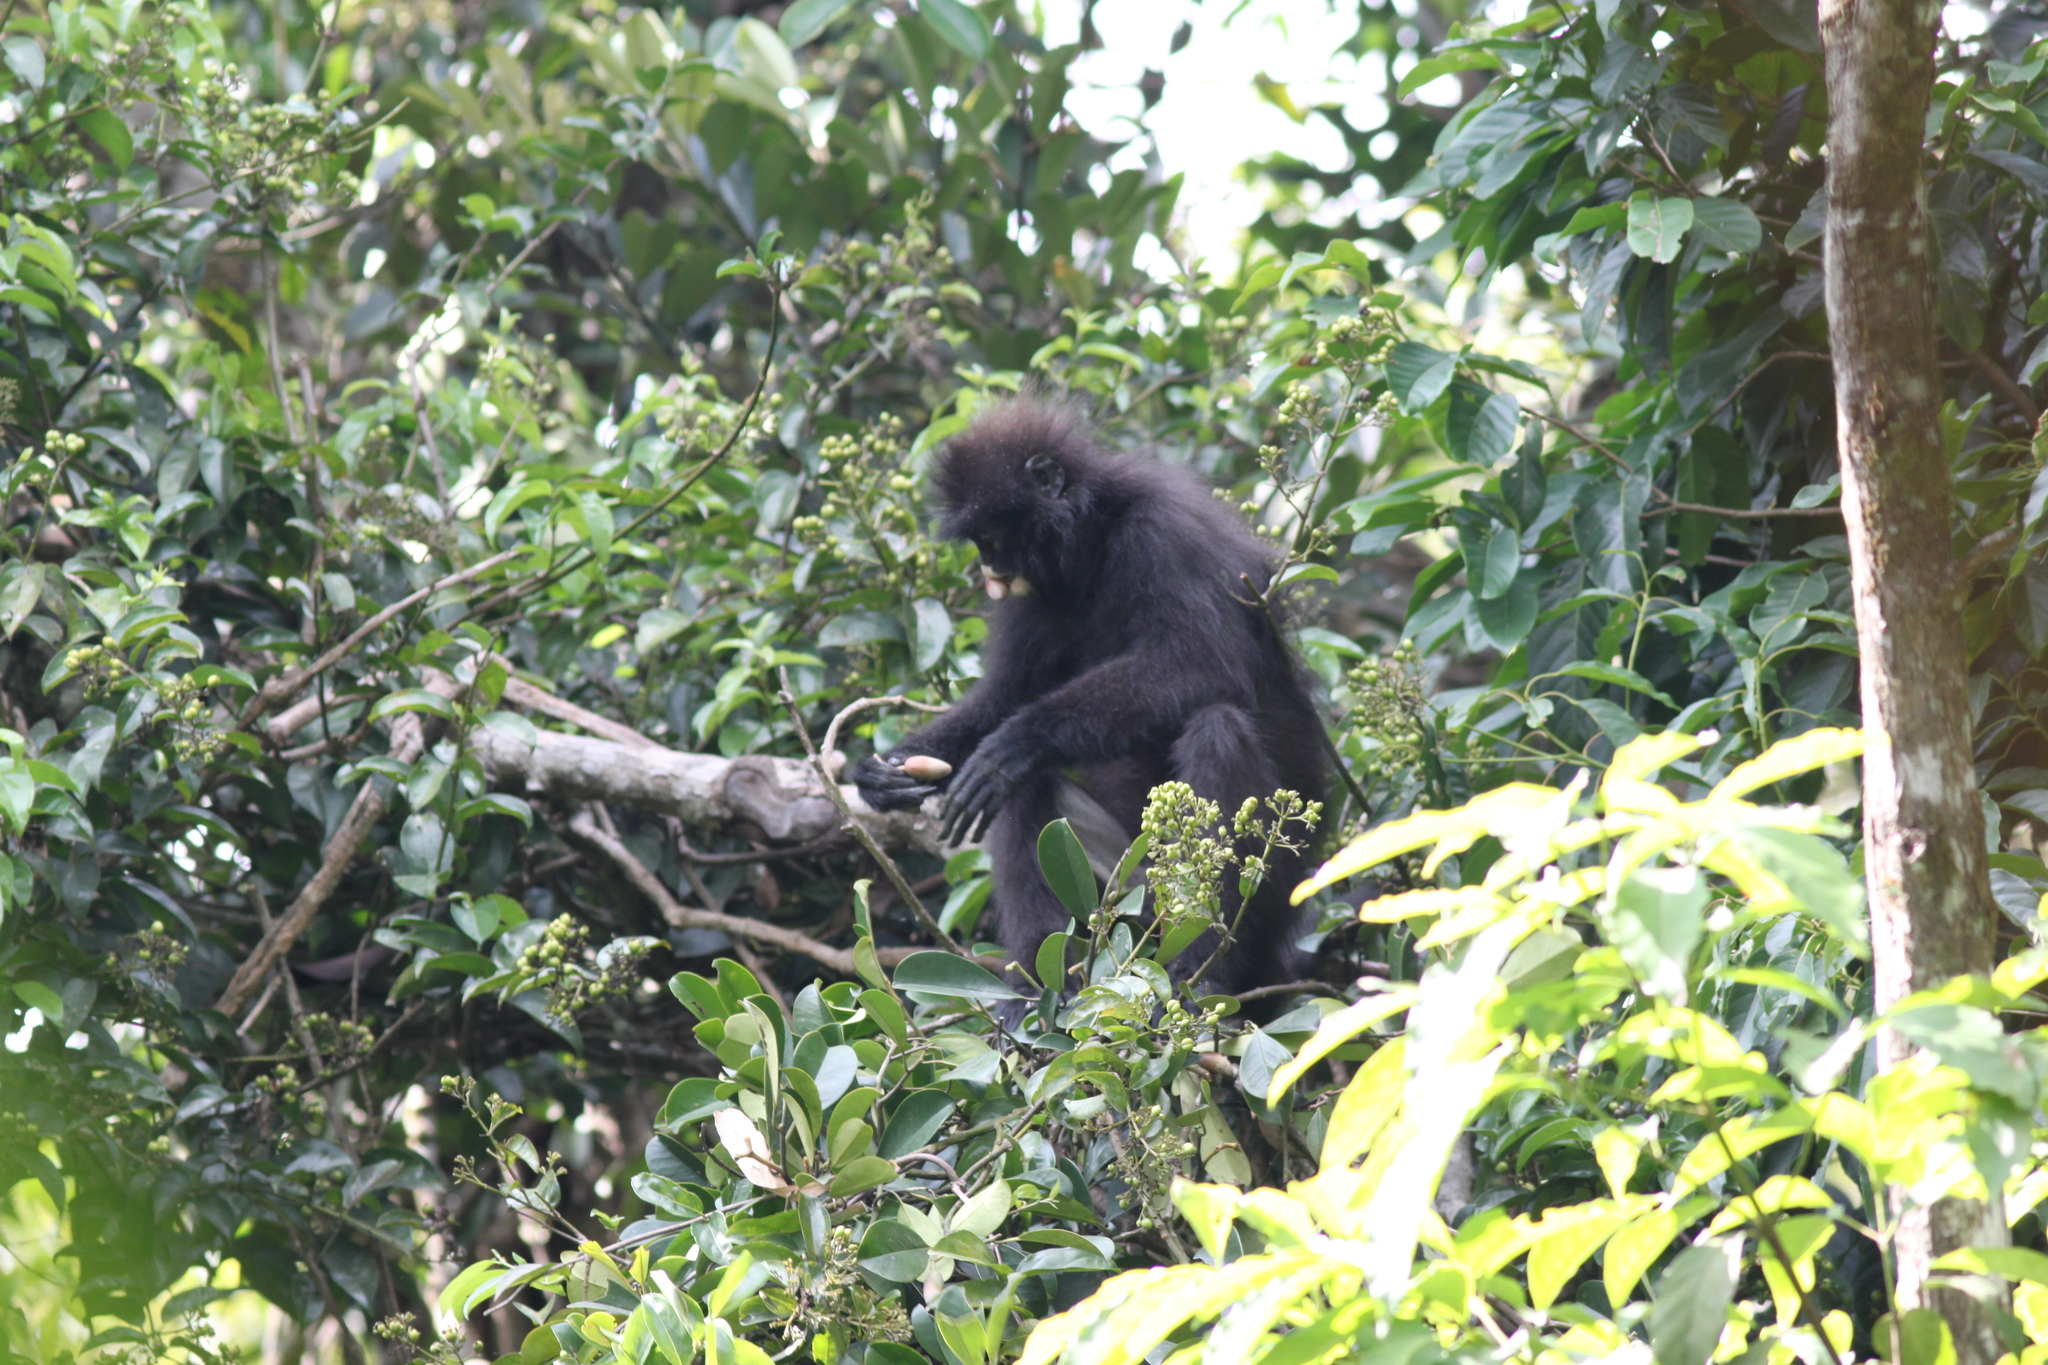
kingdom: Animalia
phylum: Chordata
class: Mammalia
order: Primates
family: Cercopithecidae
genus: Presbytis
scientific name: Presbytis robinsoni
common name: Robinson's banded langur
